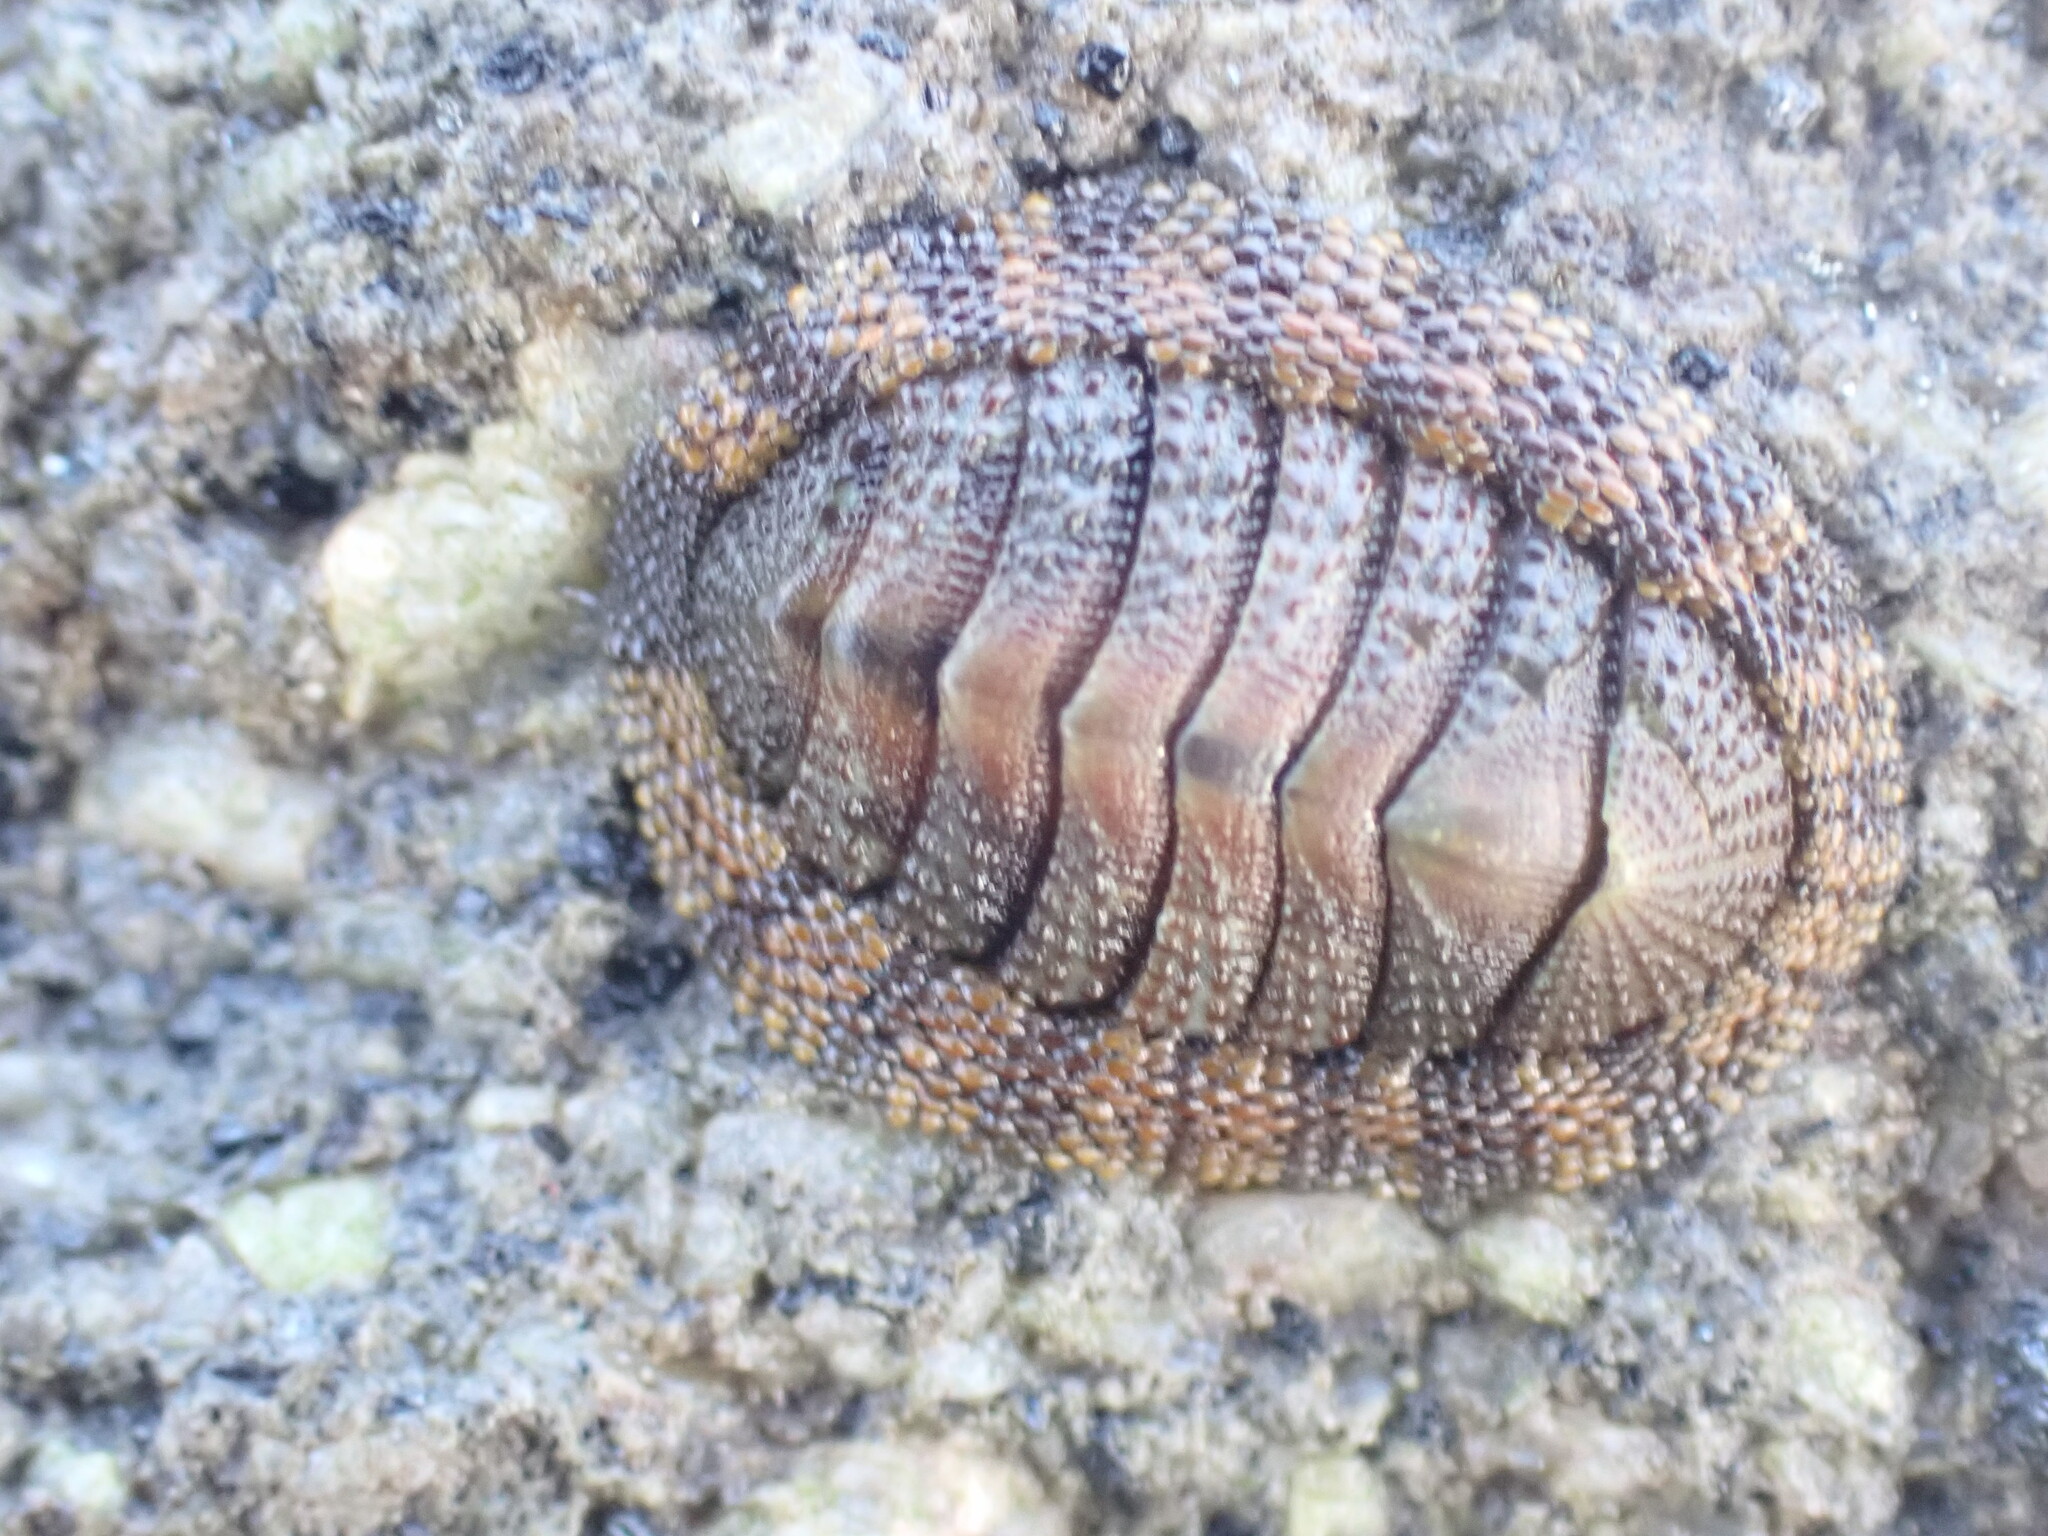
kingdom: Animalia
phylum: Mollusca
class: Polyplacophora
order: Chitonida
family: Chitonidae
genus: Sypharochiton
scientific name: Sypharochiton pelliserpentis
